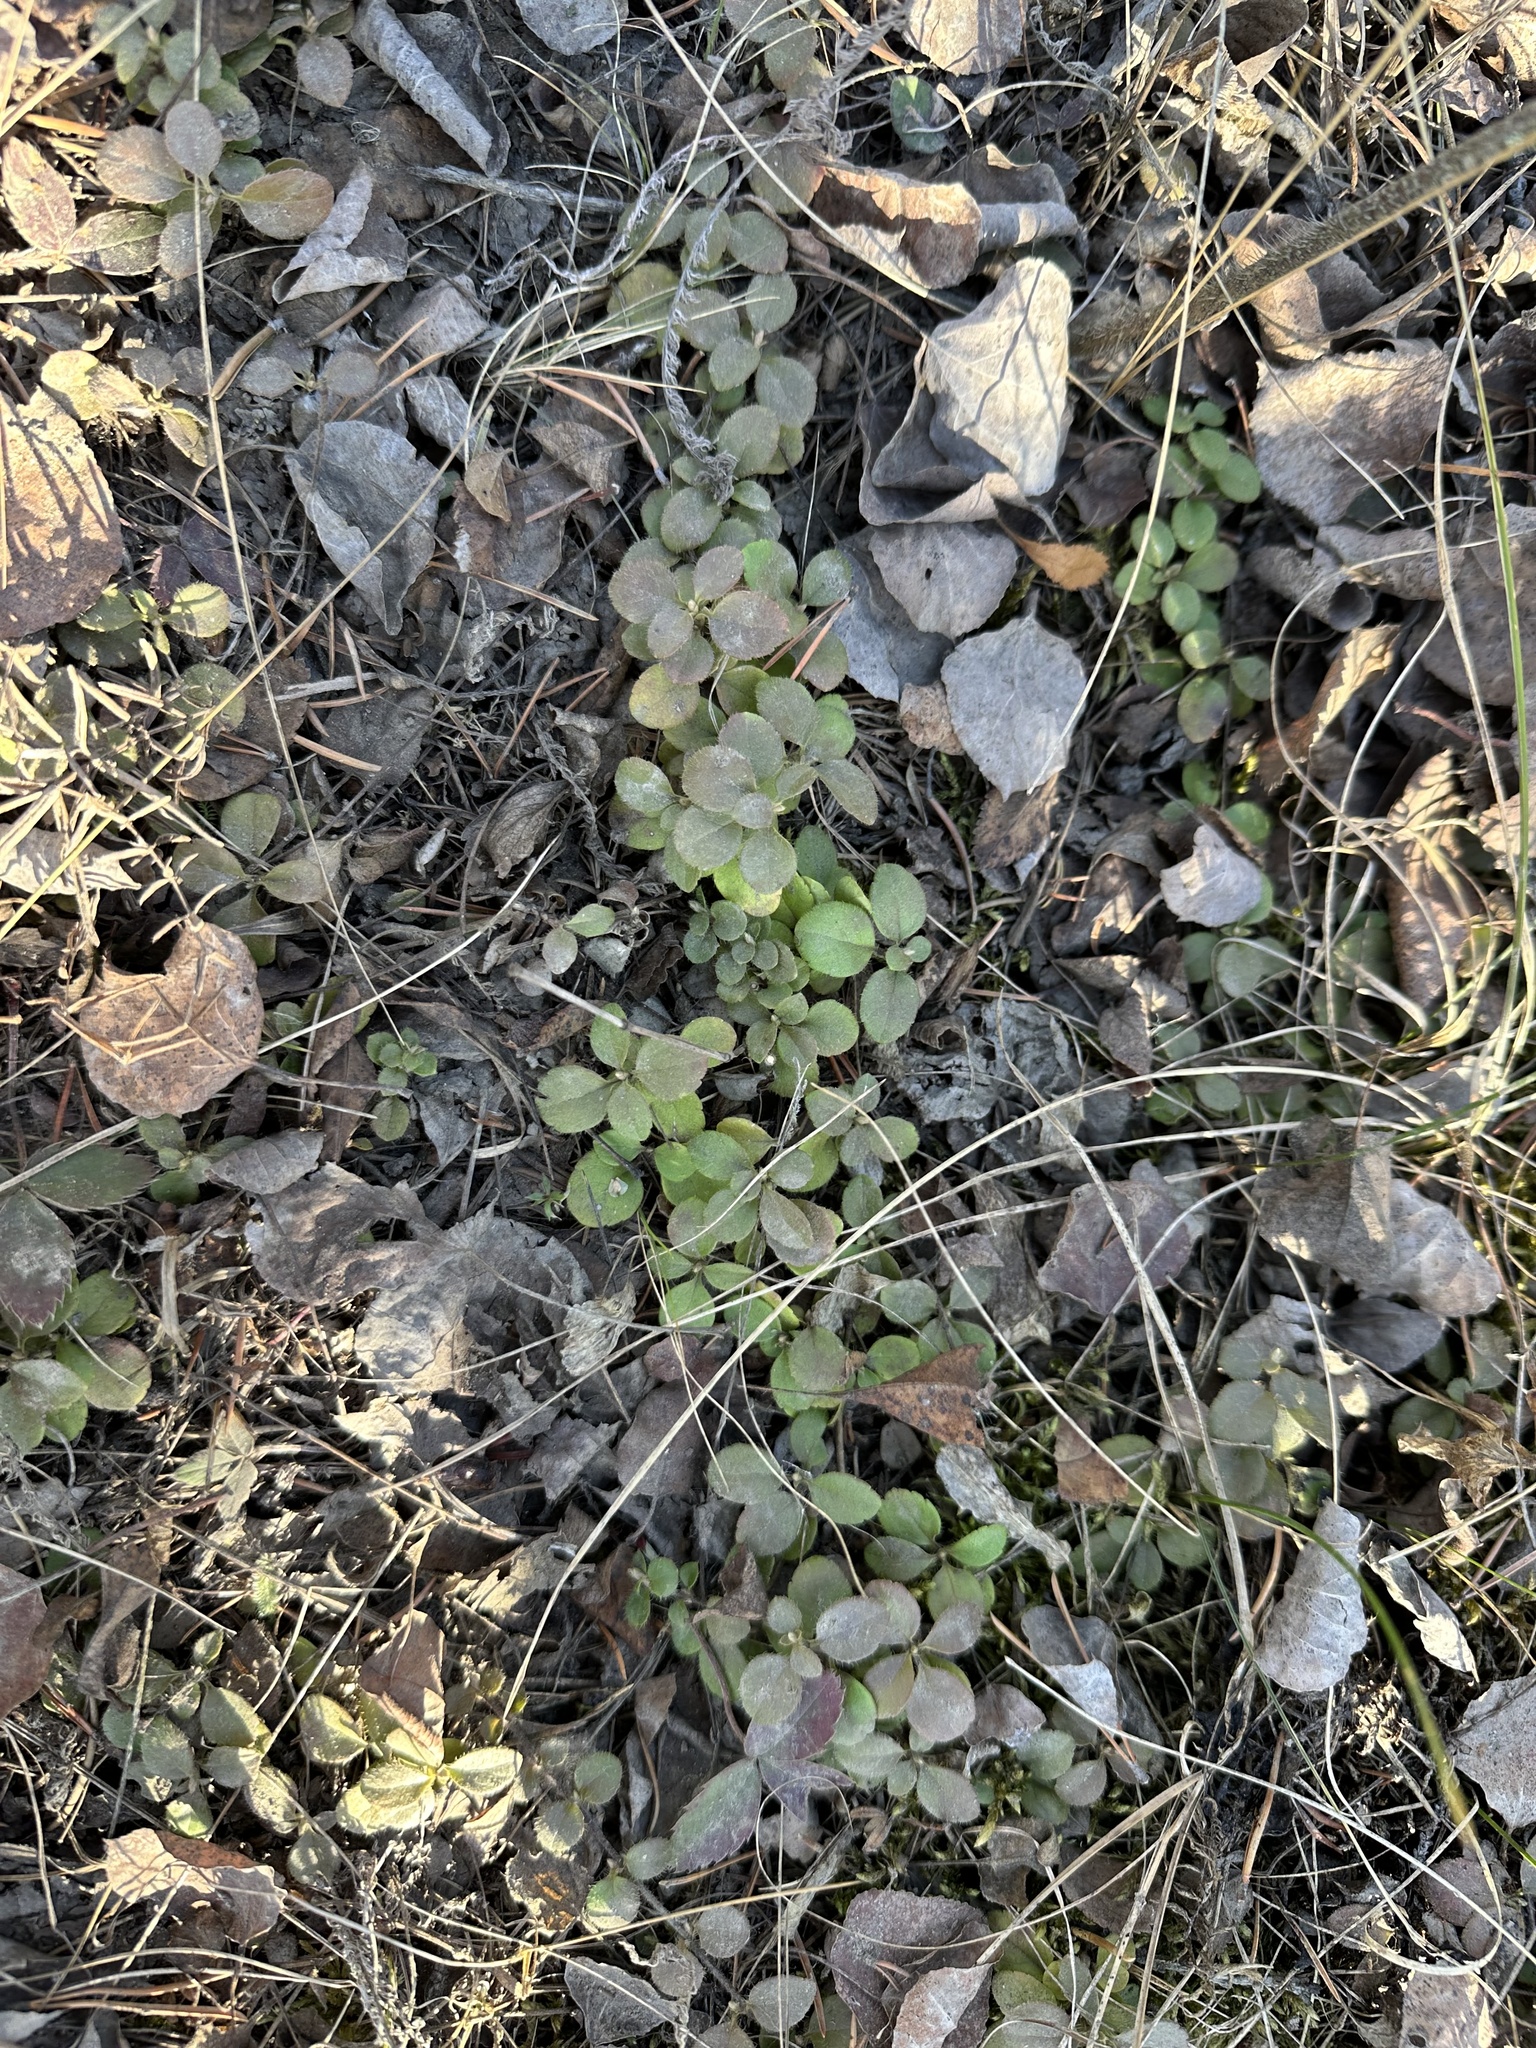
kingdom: Plantae
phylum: Tracheophyta
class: Magnoliopsida
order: Dipsacales
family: Caprifoliaceae
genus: Linnaea
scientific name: Linnaea borealis
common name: Twinflower
